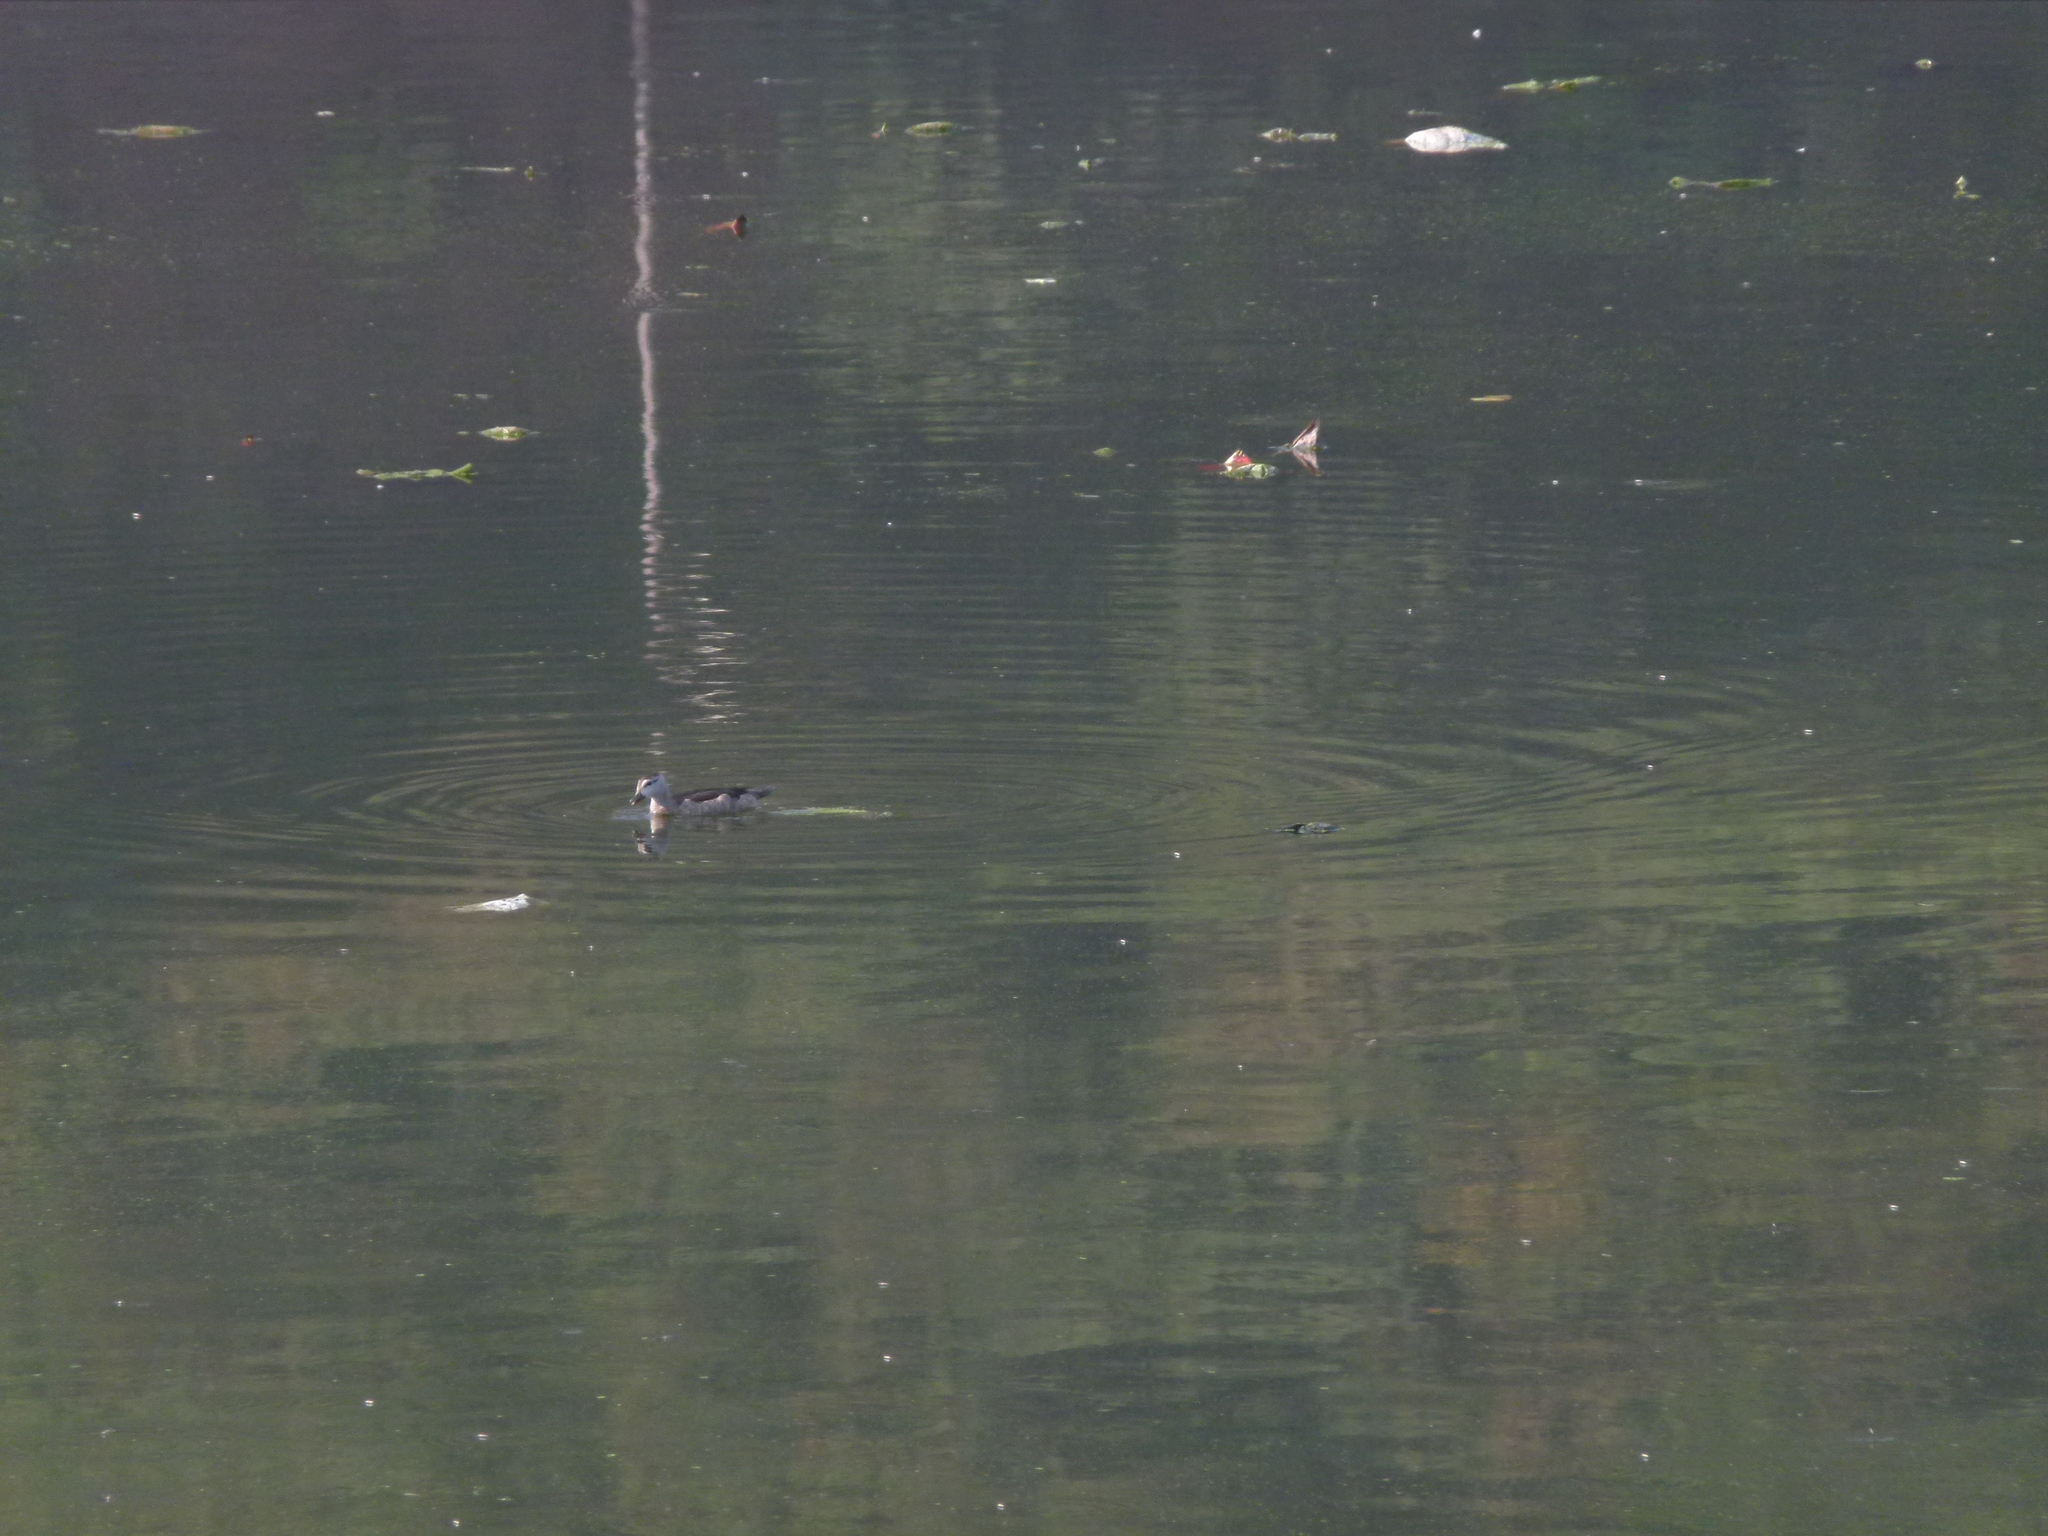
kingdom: Animalia
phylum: Chordata
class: Aves
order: Anseriformes
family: Anatidae
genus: Nettapus
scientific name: Nettapus coromandelianus
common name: Cotton pygmy-goose
